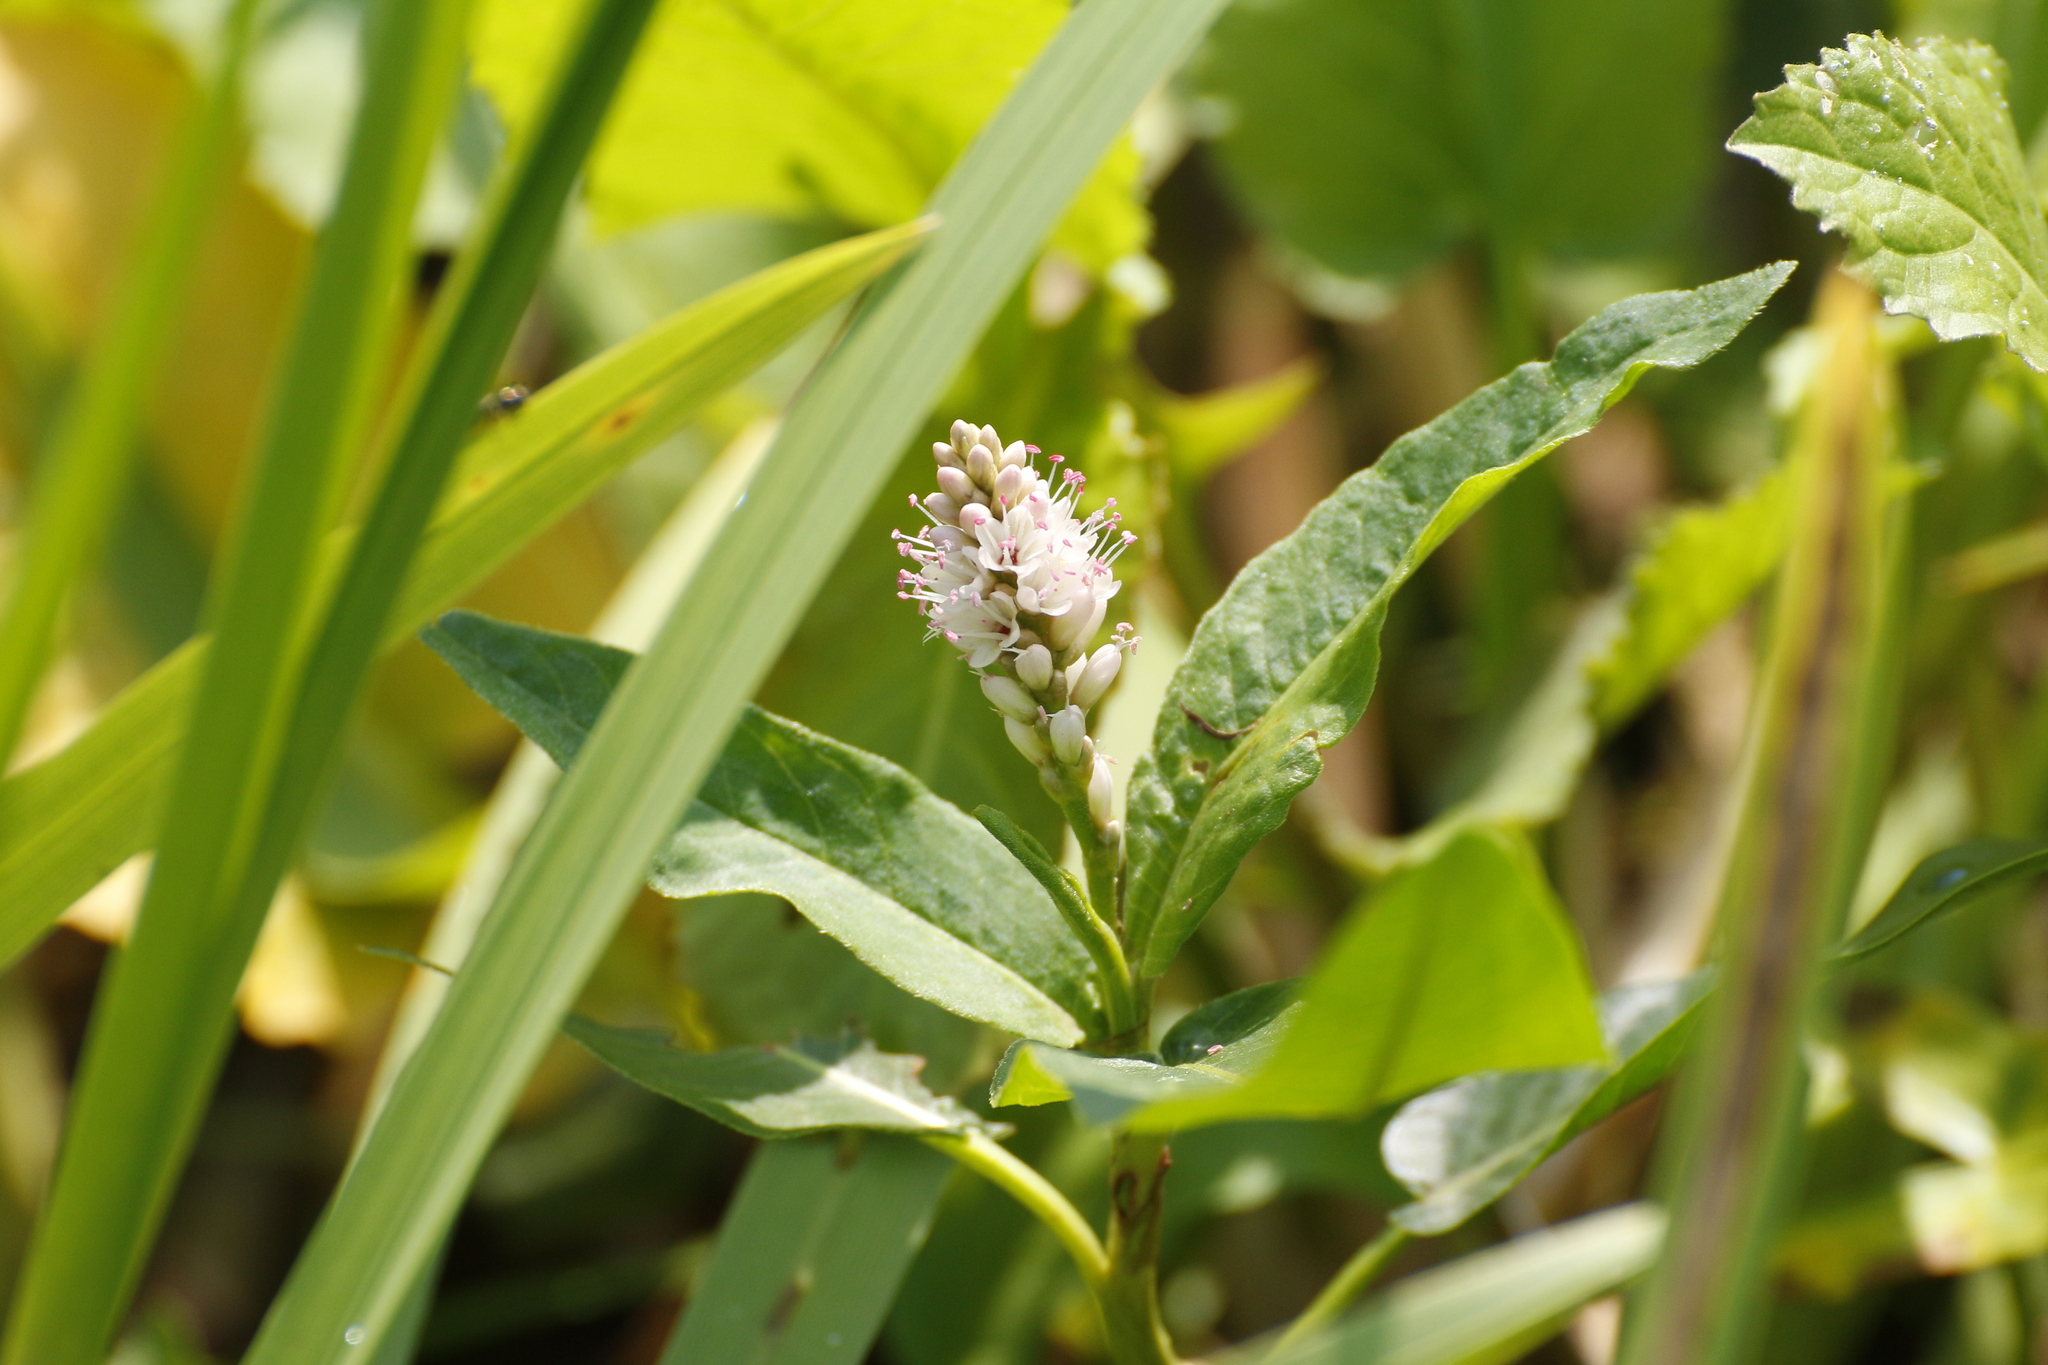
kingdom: Plantae
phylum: Tracheophyta
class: Magnoliopsida
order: Caryophyllales
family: Polygonaceae
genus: Persicaria
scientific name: Persicaria lapathifolia
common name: Curlytop knotweed
